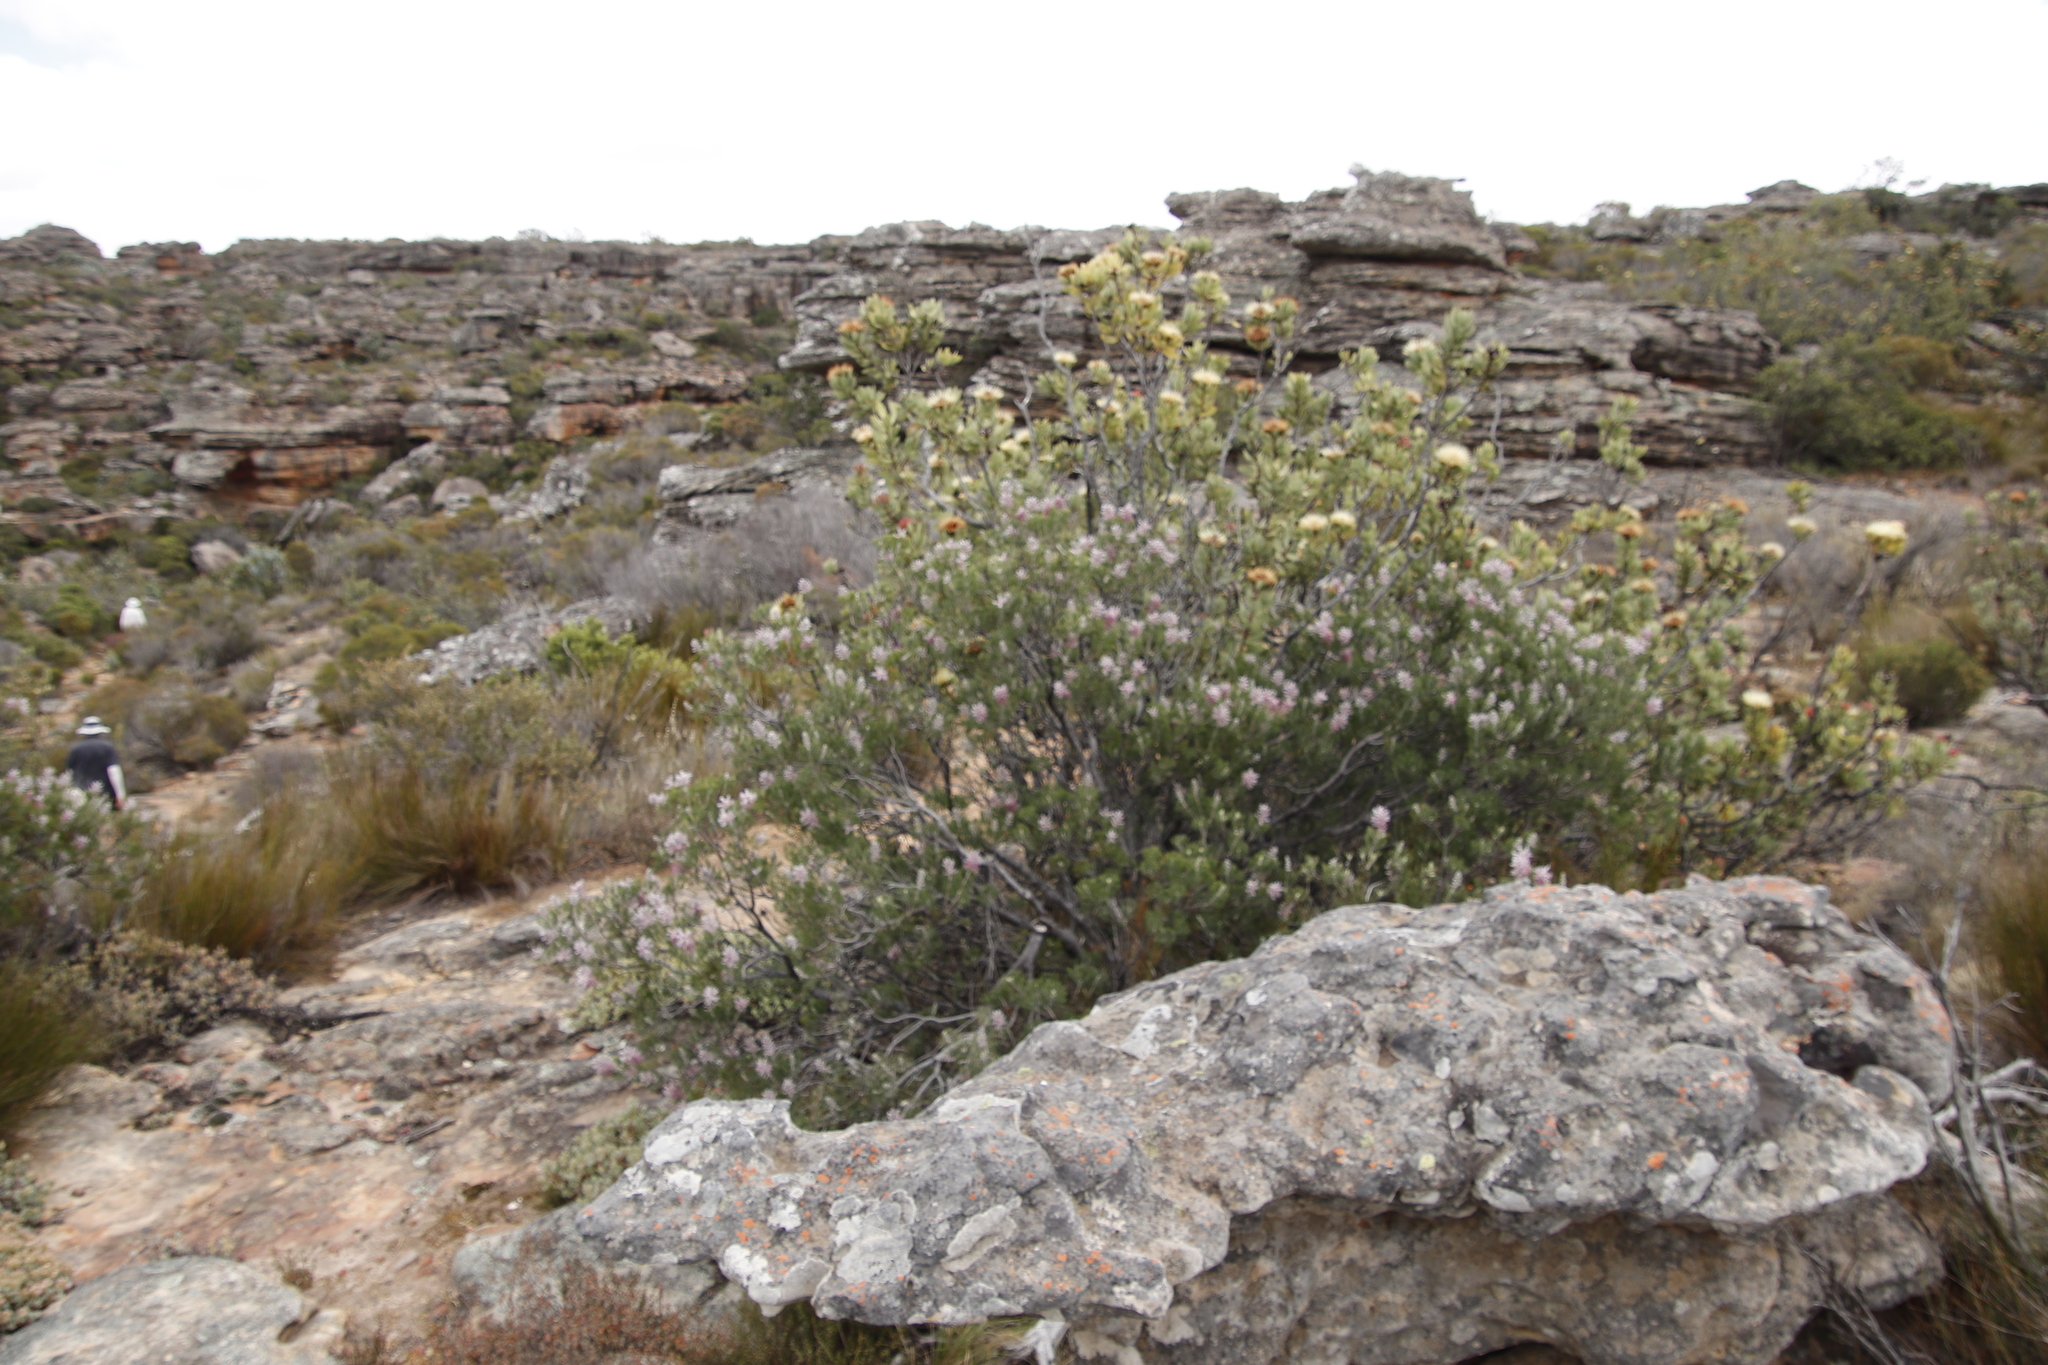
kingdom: Plantae
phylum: Tracheophyta
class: Magnoliopsida
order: Proteales
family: Proteaceae
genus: Paranomus
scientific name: Paranomus bracteolaris
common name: Bokkeveld tree sceptre
